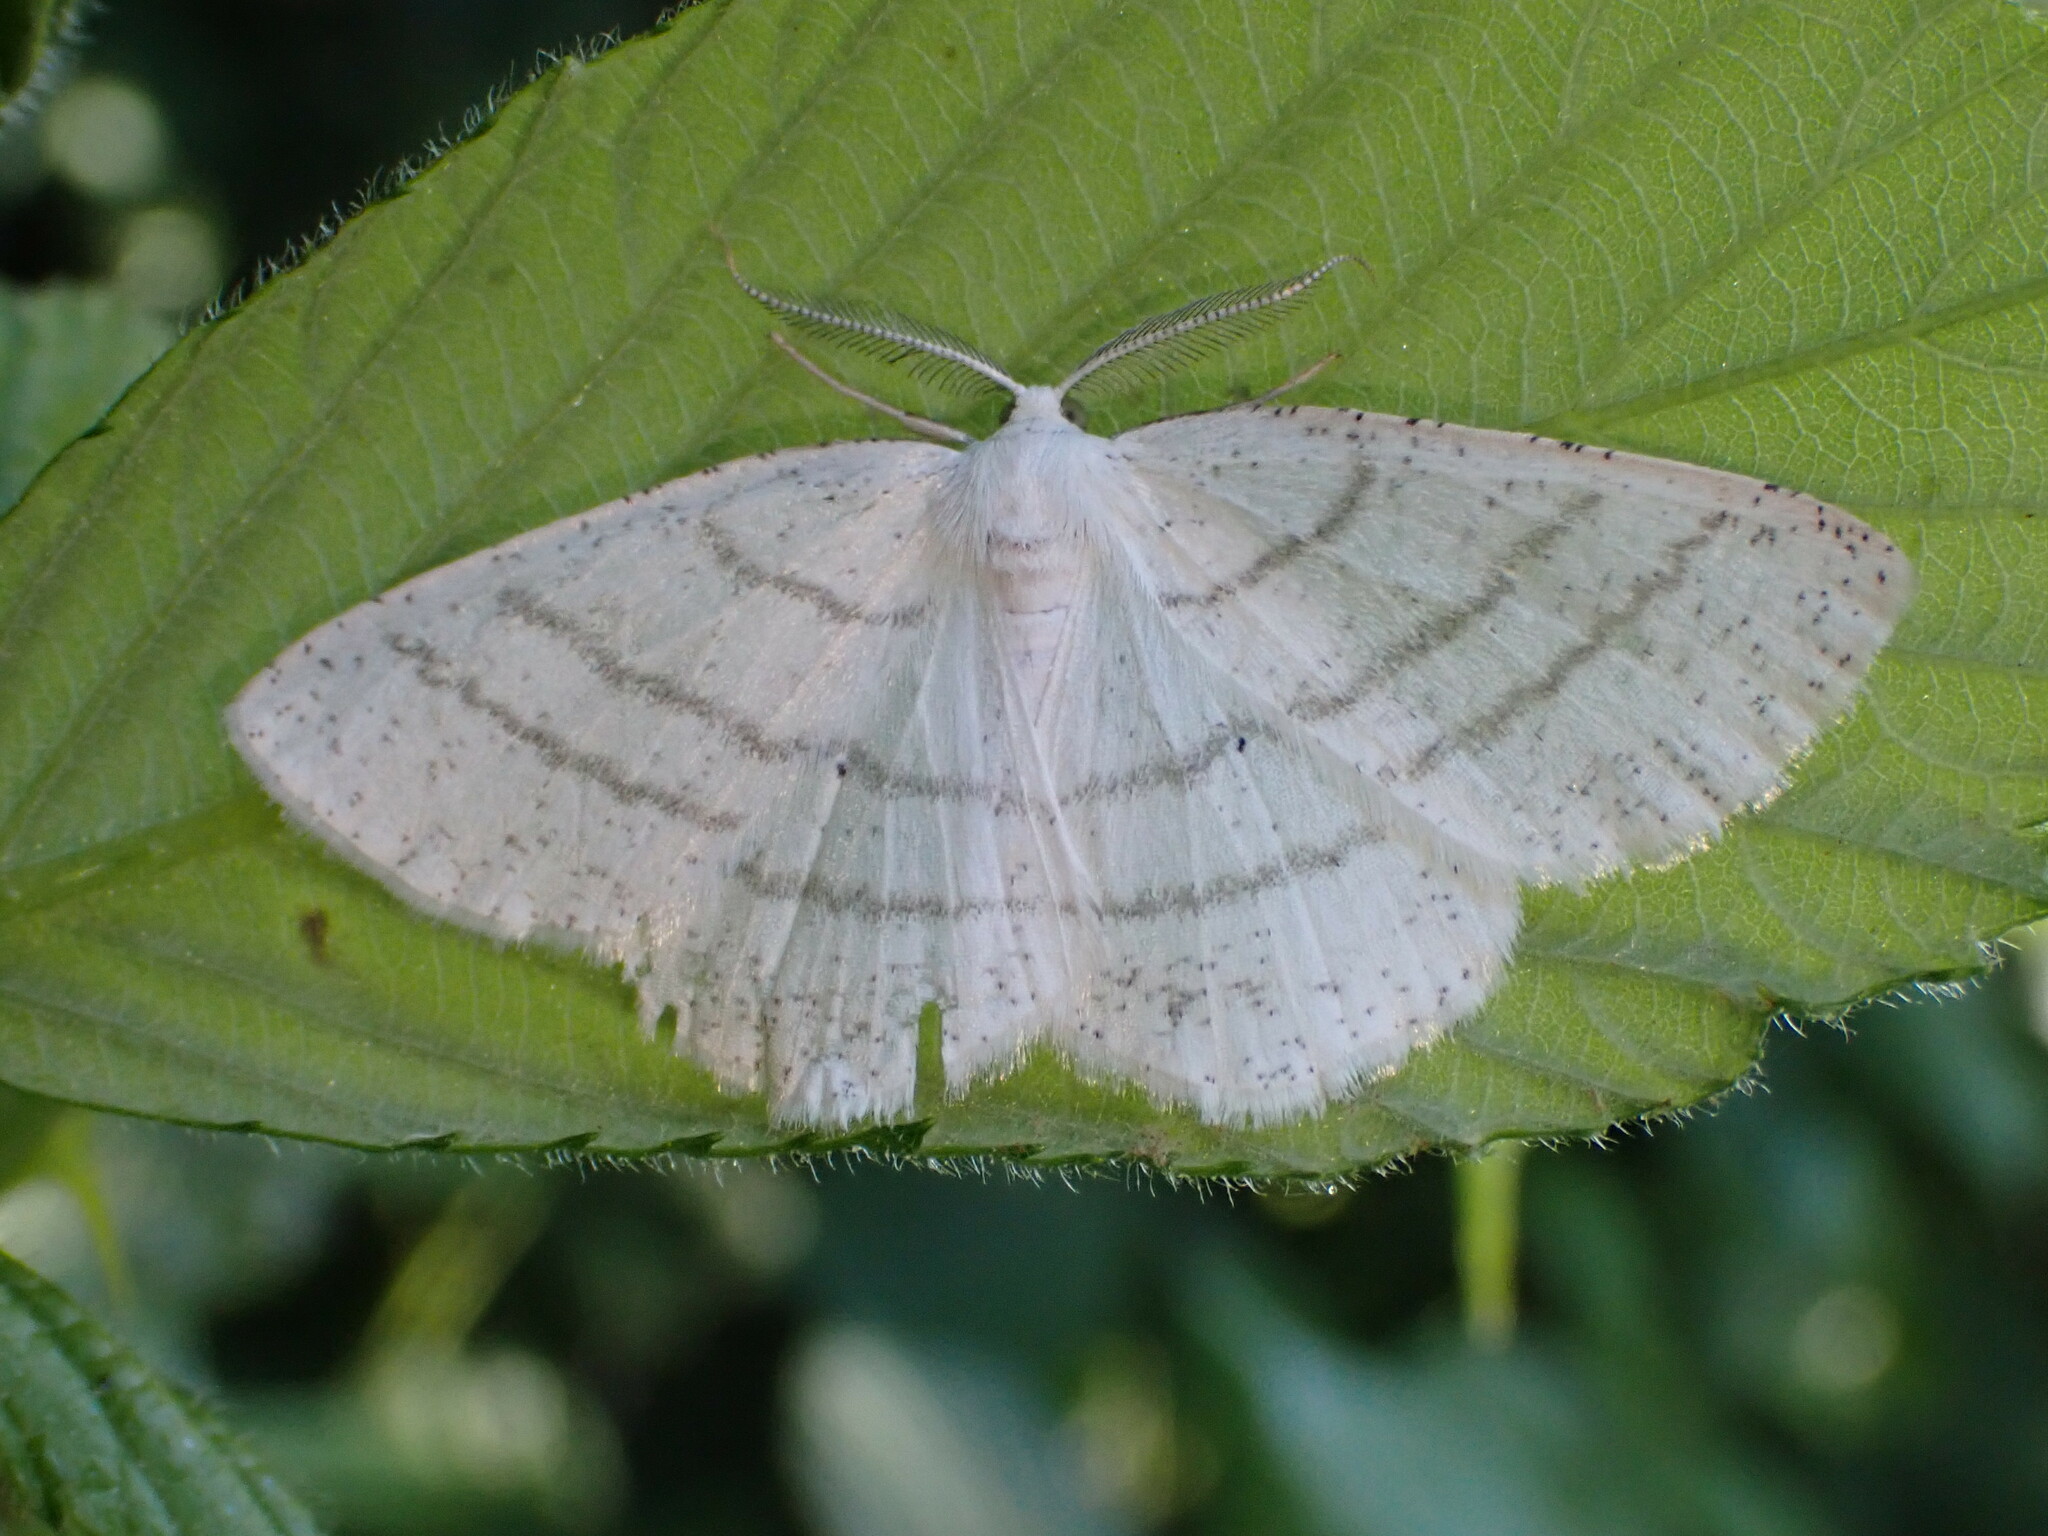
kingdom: Animalia
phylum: Arthropoda
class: Insecta
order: Lepidoptera
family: Geometridae
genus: Cabera
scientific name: Cabera pusaria
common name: Common white wave
